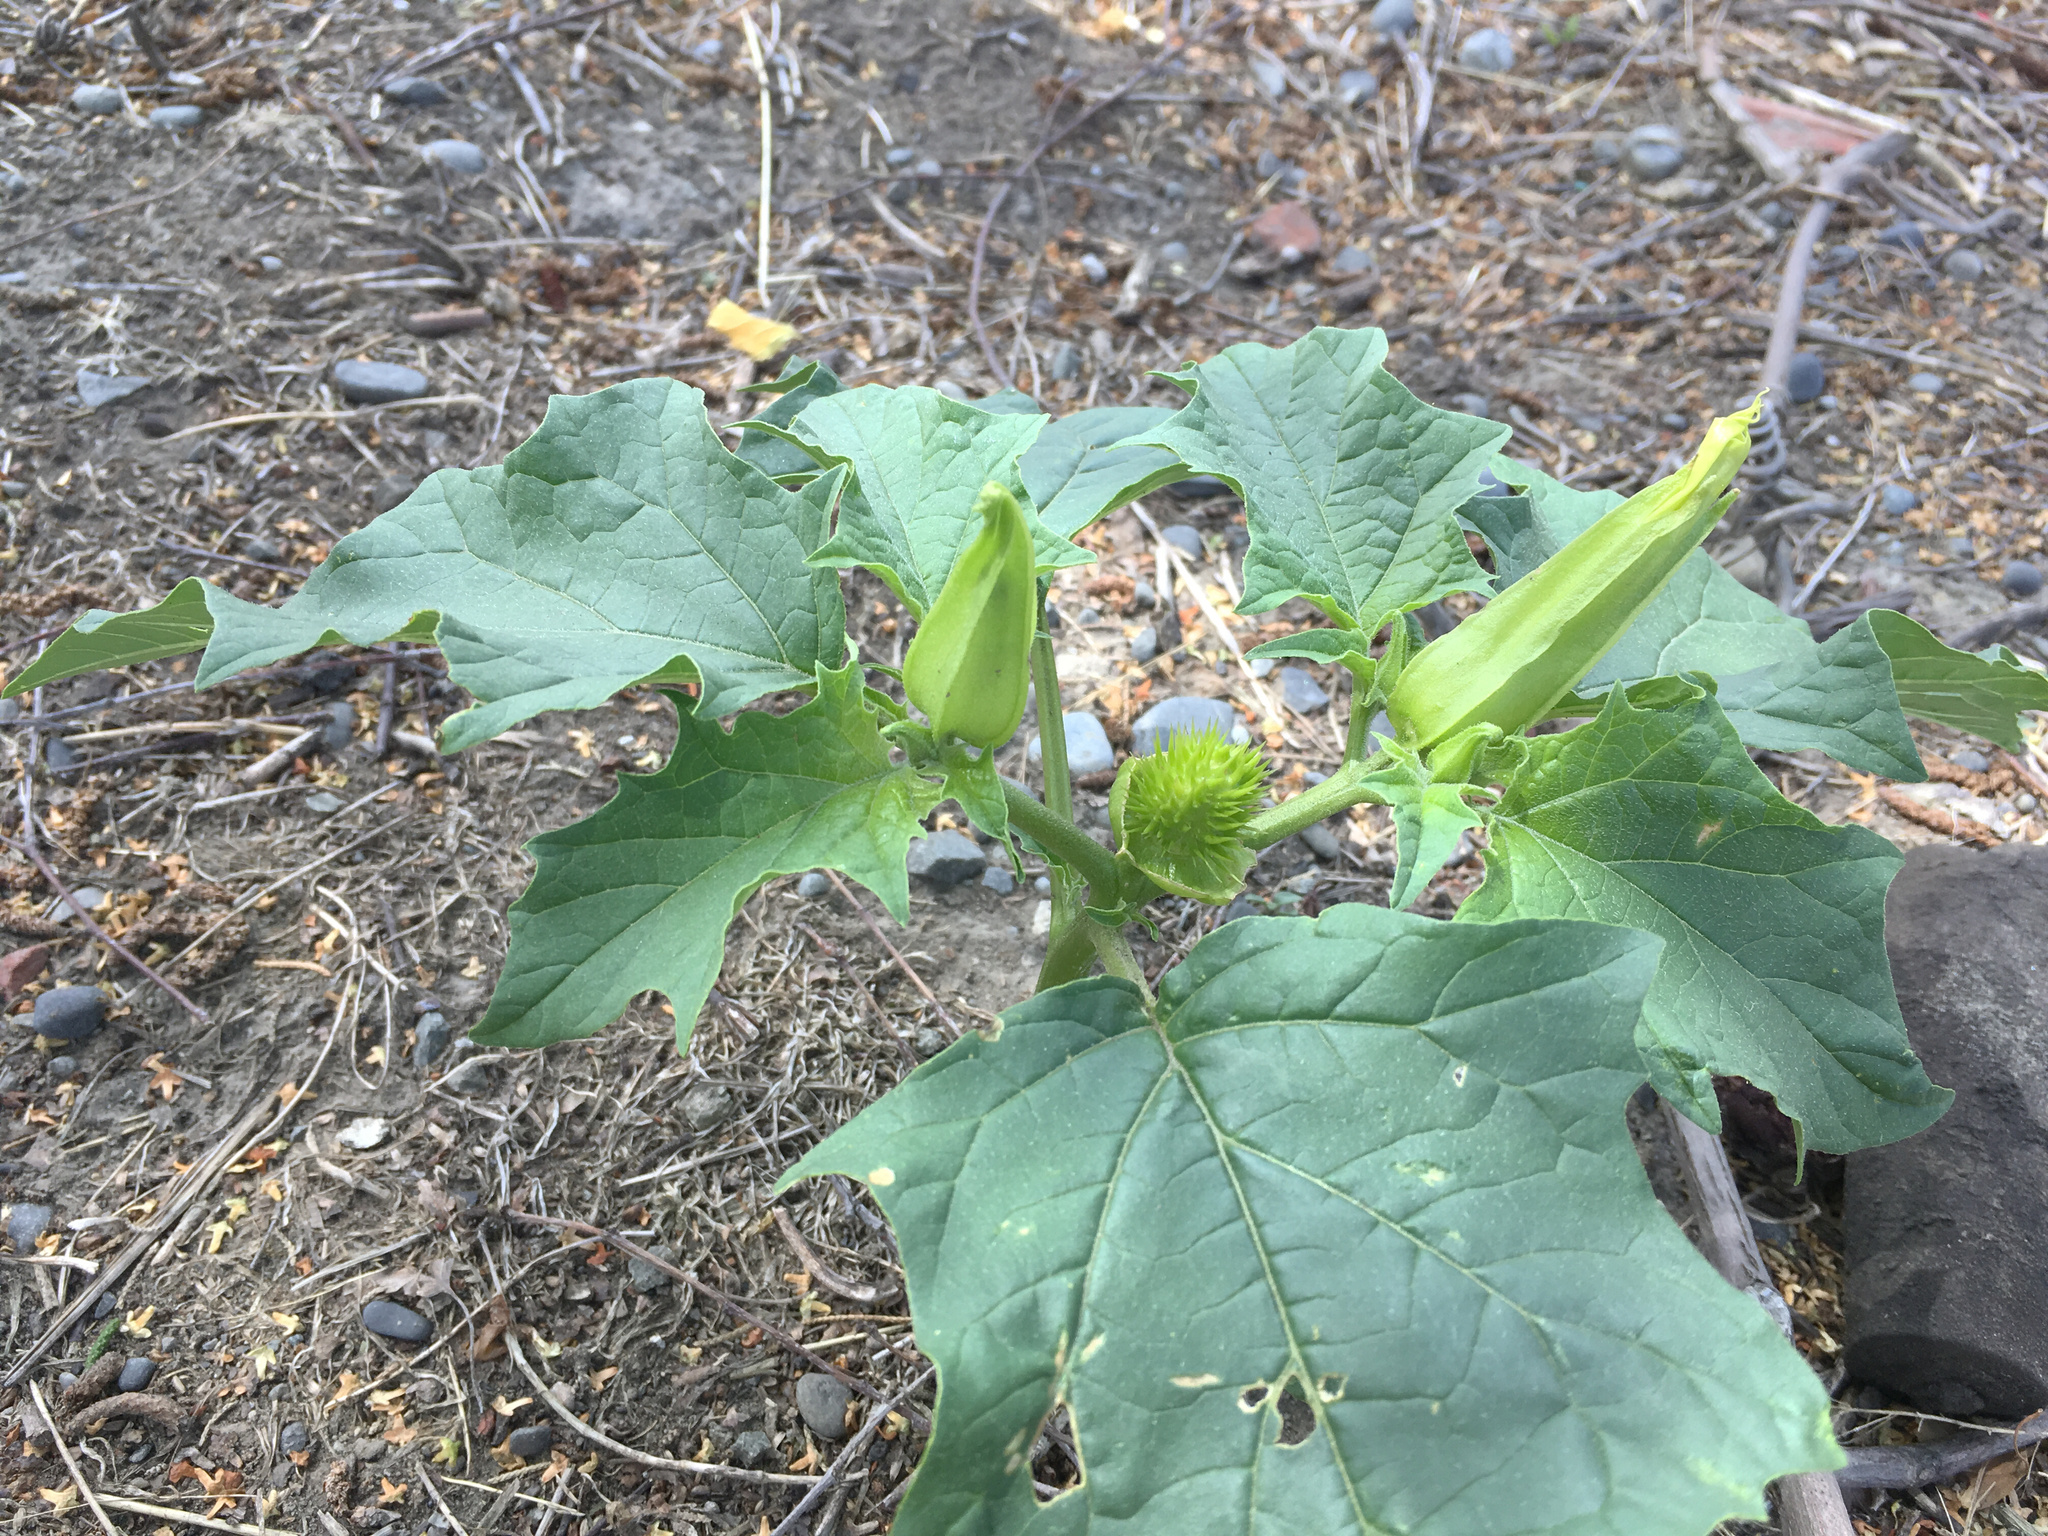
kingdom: Plantae
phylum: Tracheophyta
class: Magnoliopsida
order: Solanales
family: Solanaceae
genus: Datura
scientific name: Datura stramonium
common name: Thorn-apple
